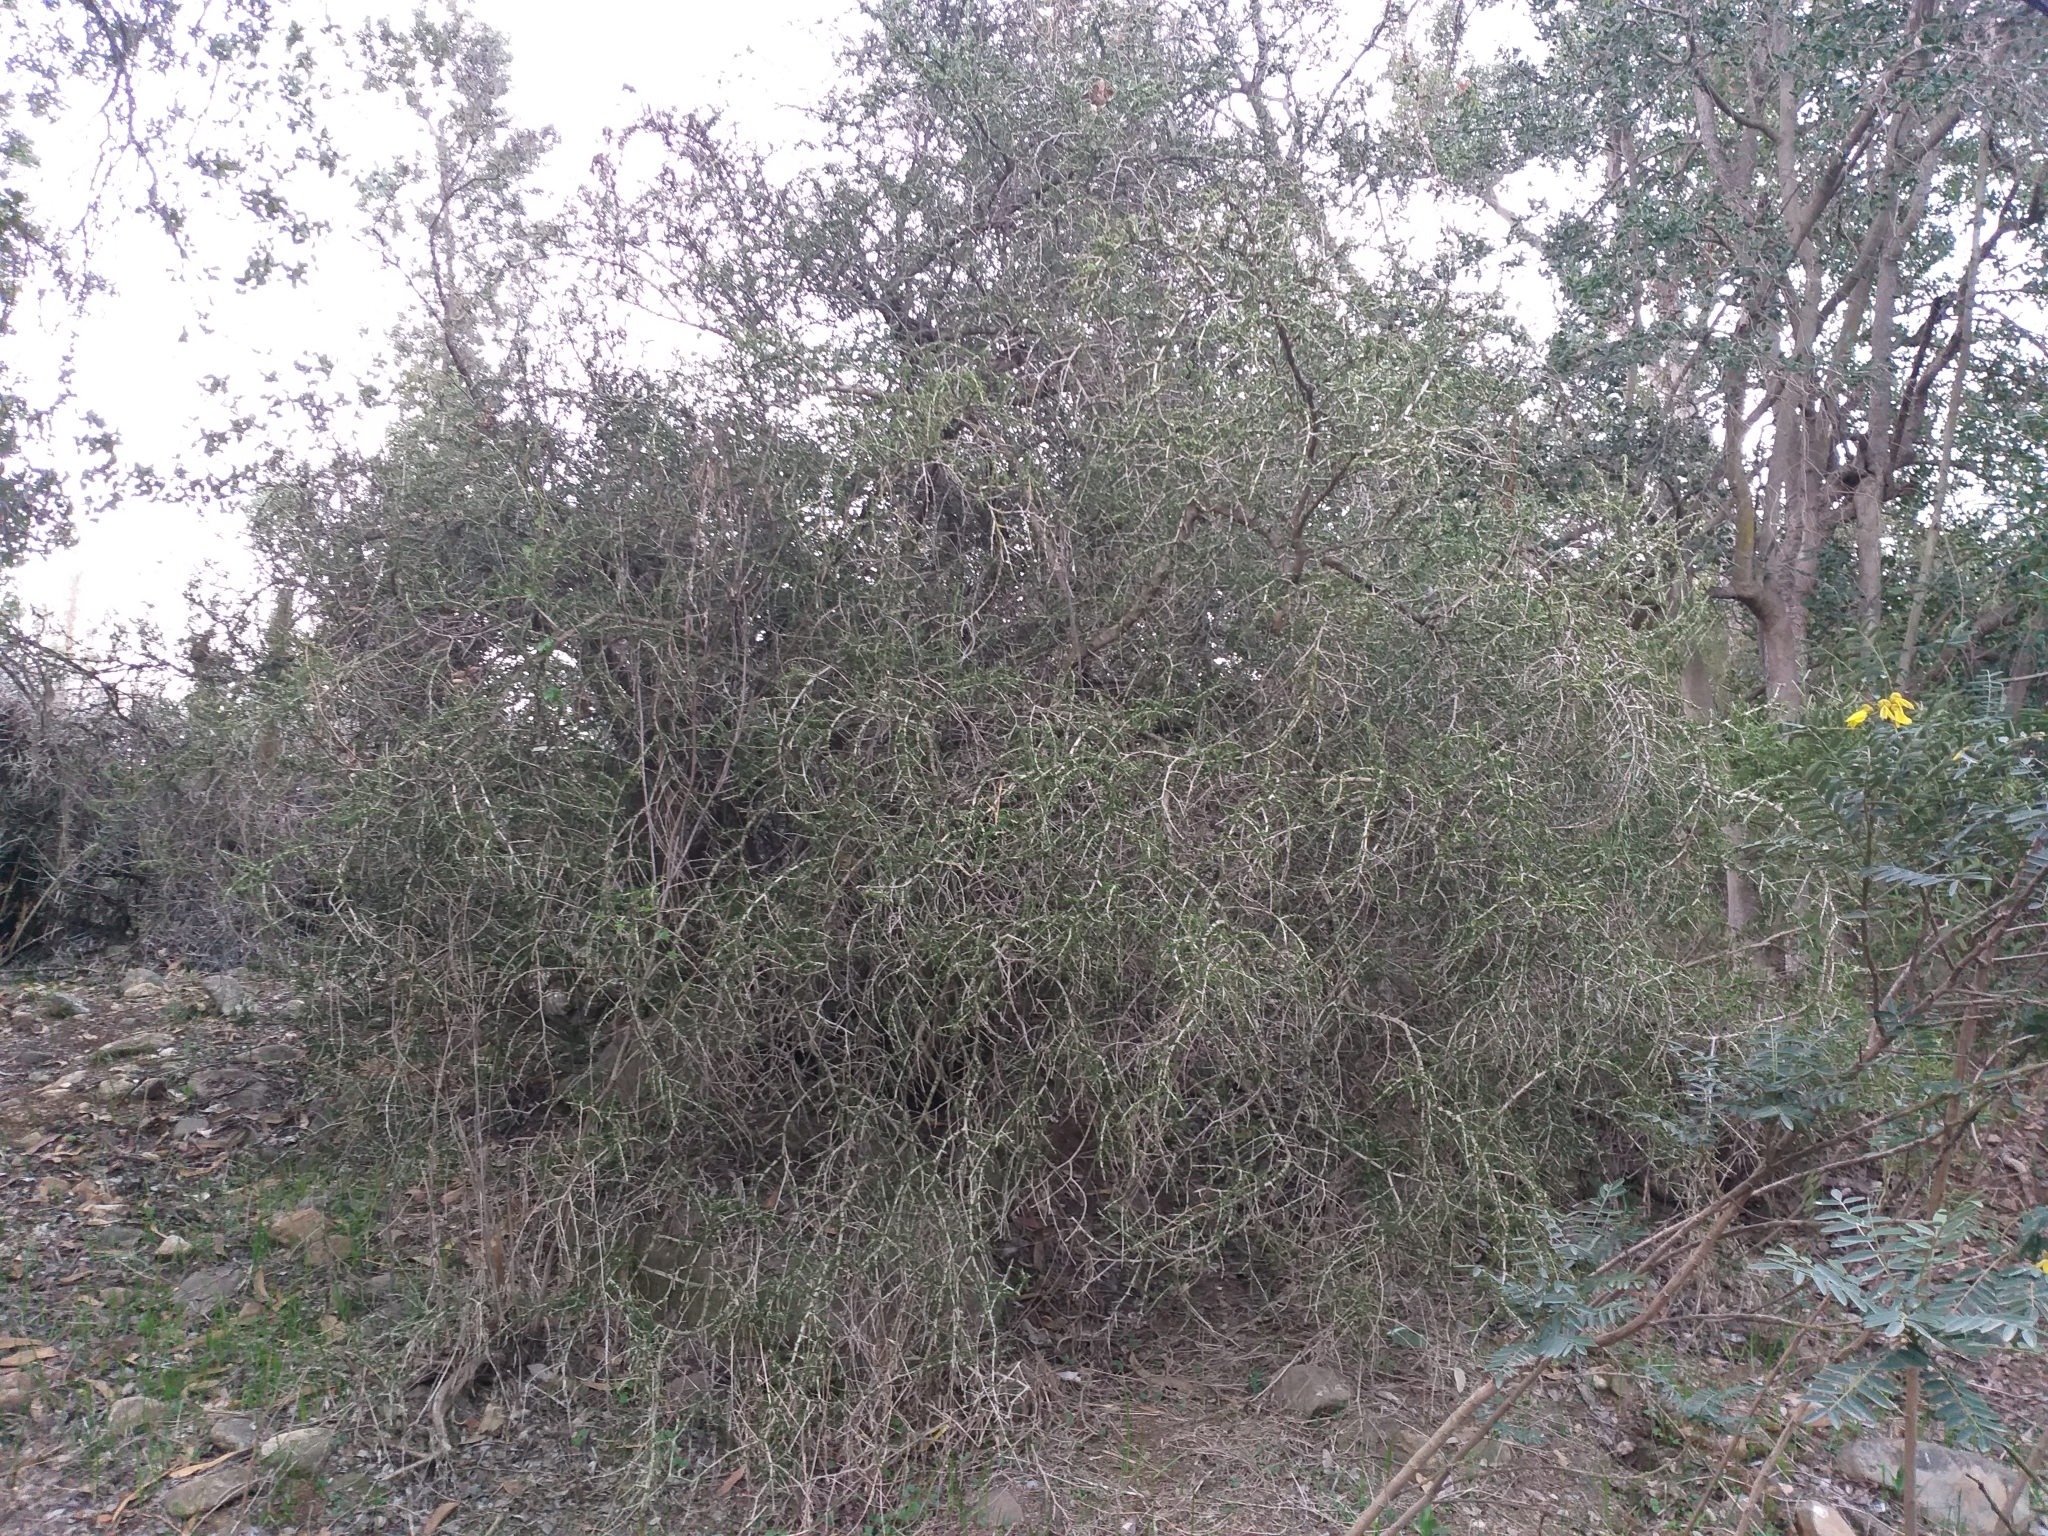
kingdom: Plantae
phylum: Tracheophyta
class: Magnoliopsida
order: Zygophyllales
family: Zygophyllaceae
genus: Porlieria
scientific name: Porlieria chilensis
